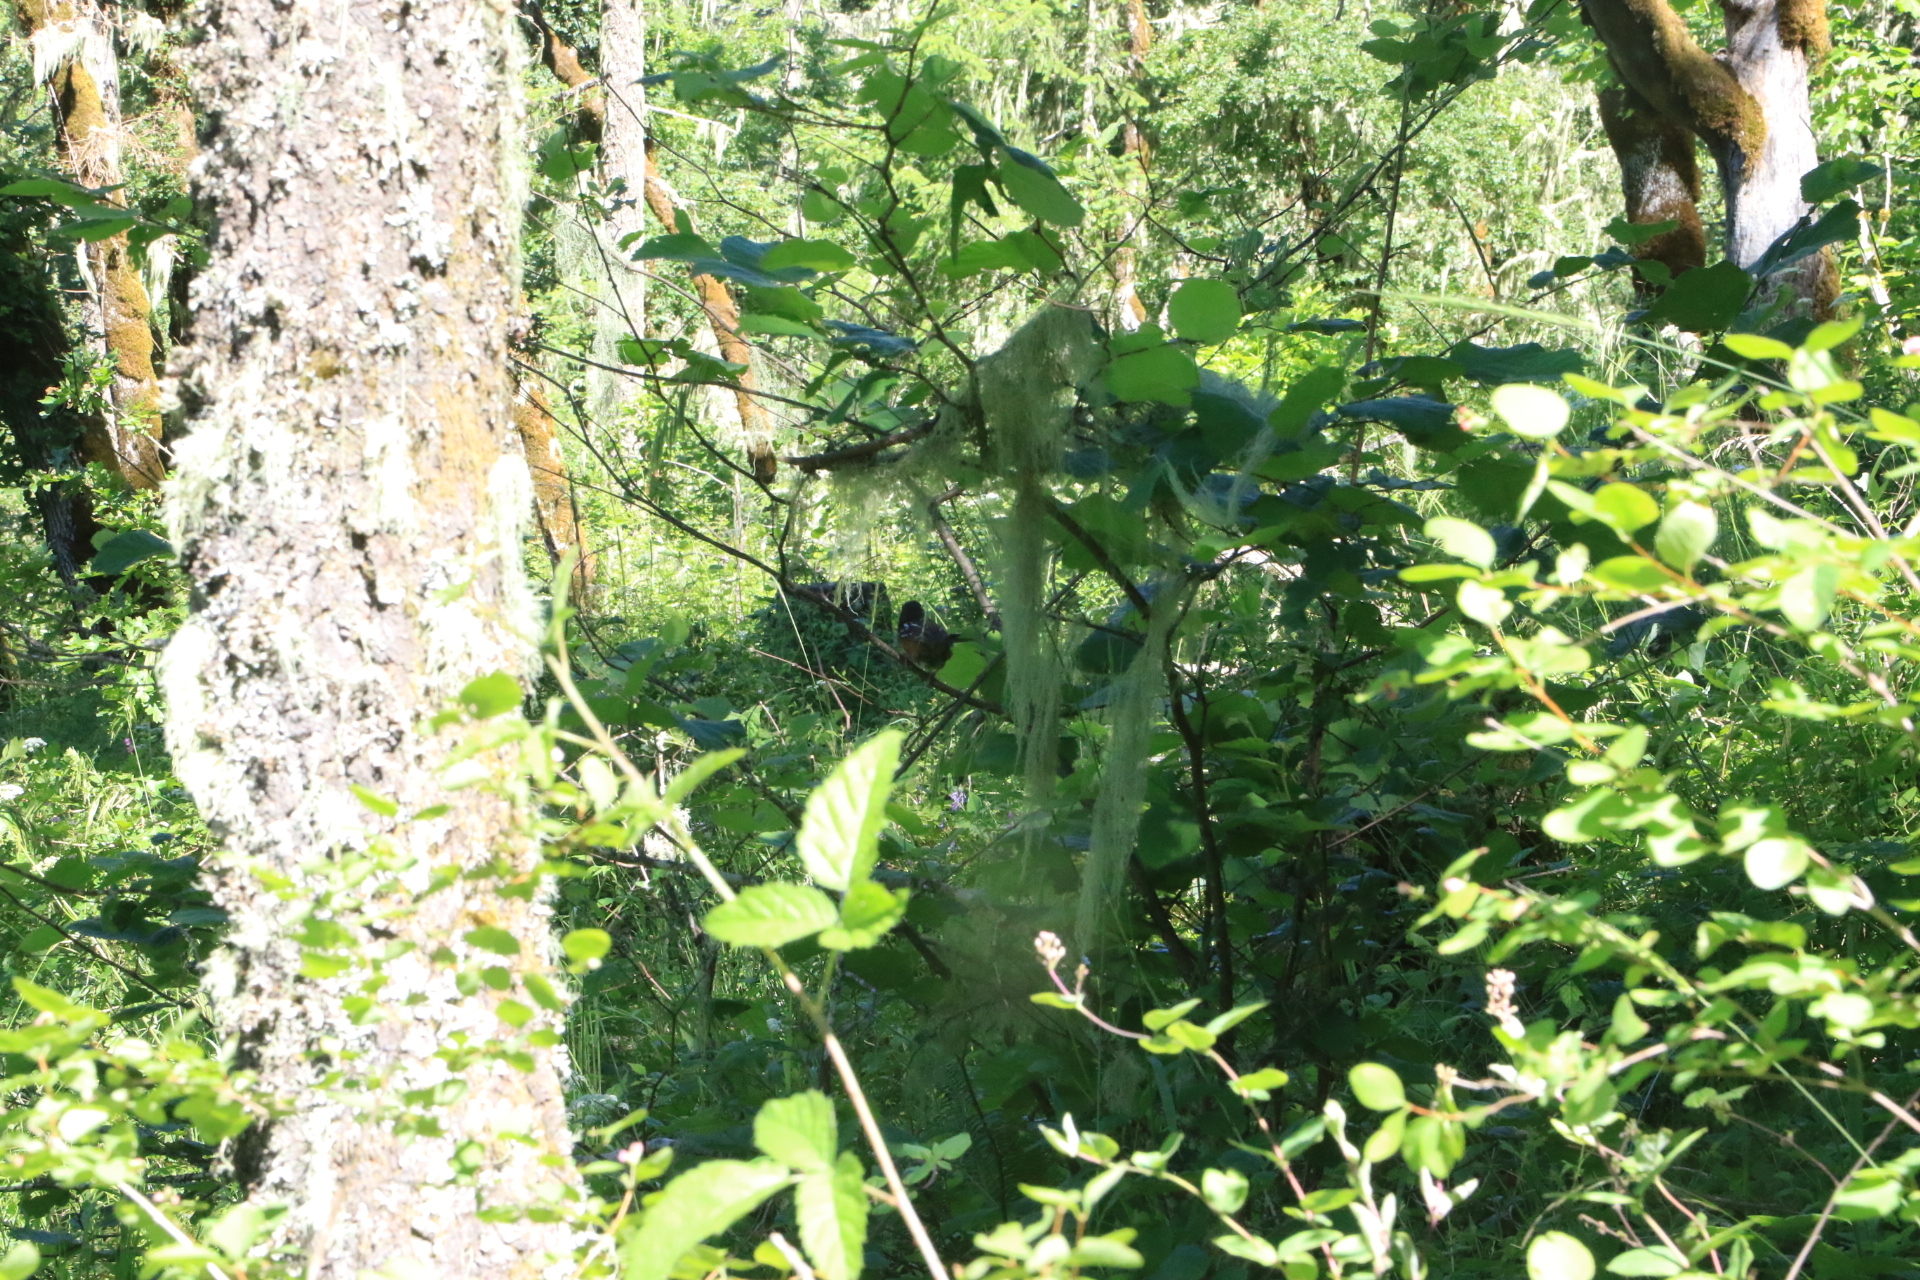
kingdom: Animalia
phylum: Chordata
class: Aves
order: Passeriformes
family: Passerellidae
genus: Pipilo
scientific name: Pipilo maculatus
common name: Spotted towhee
